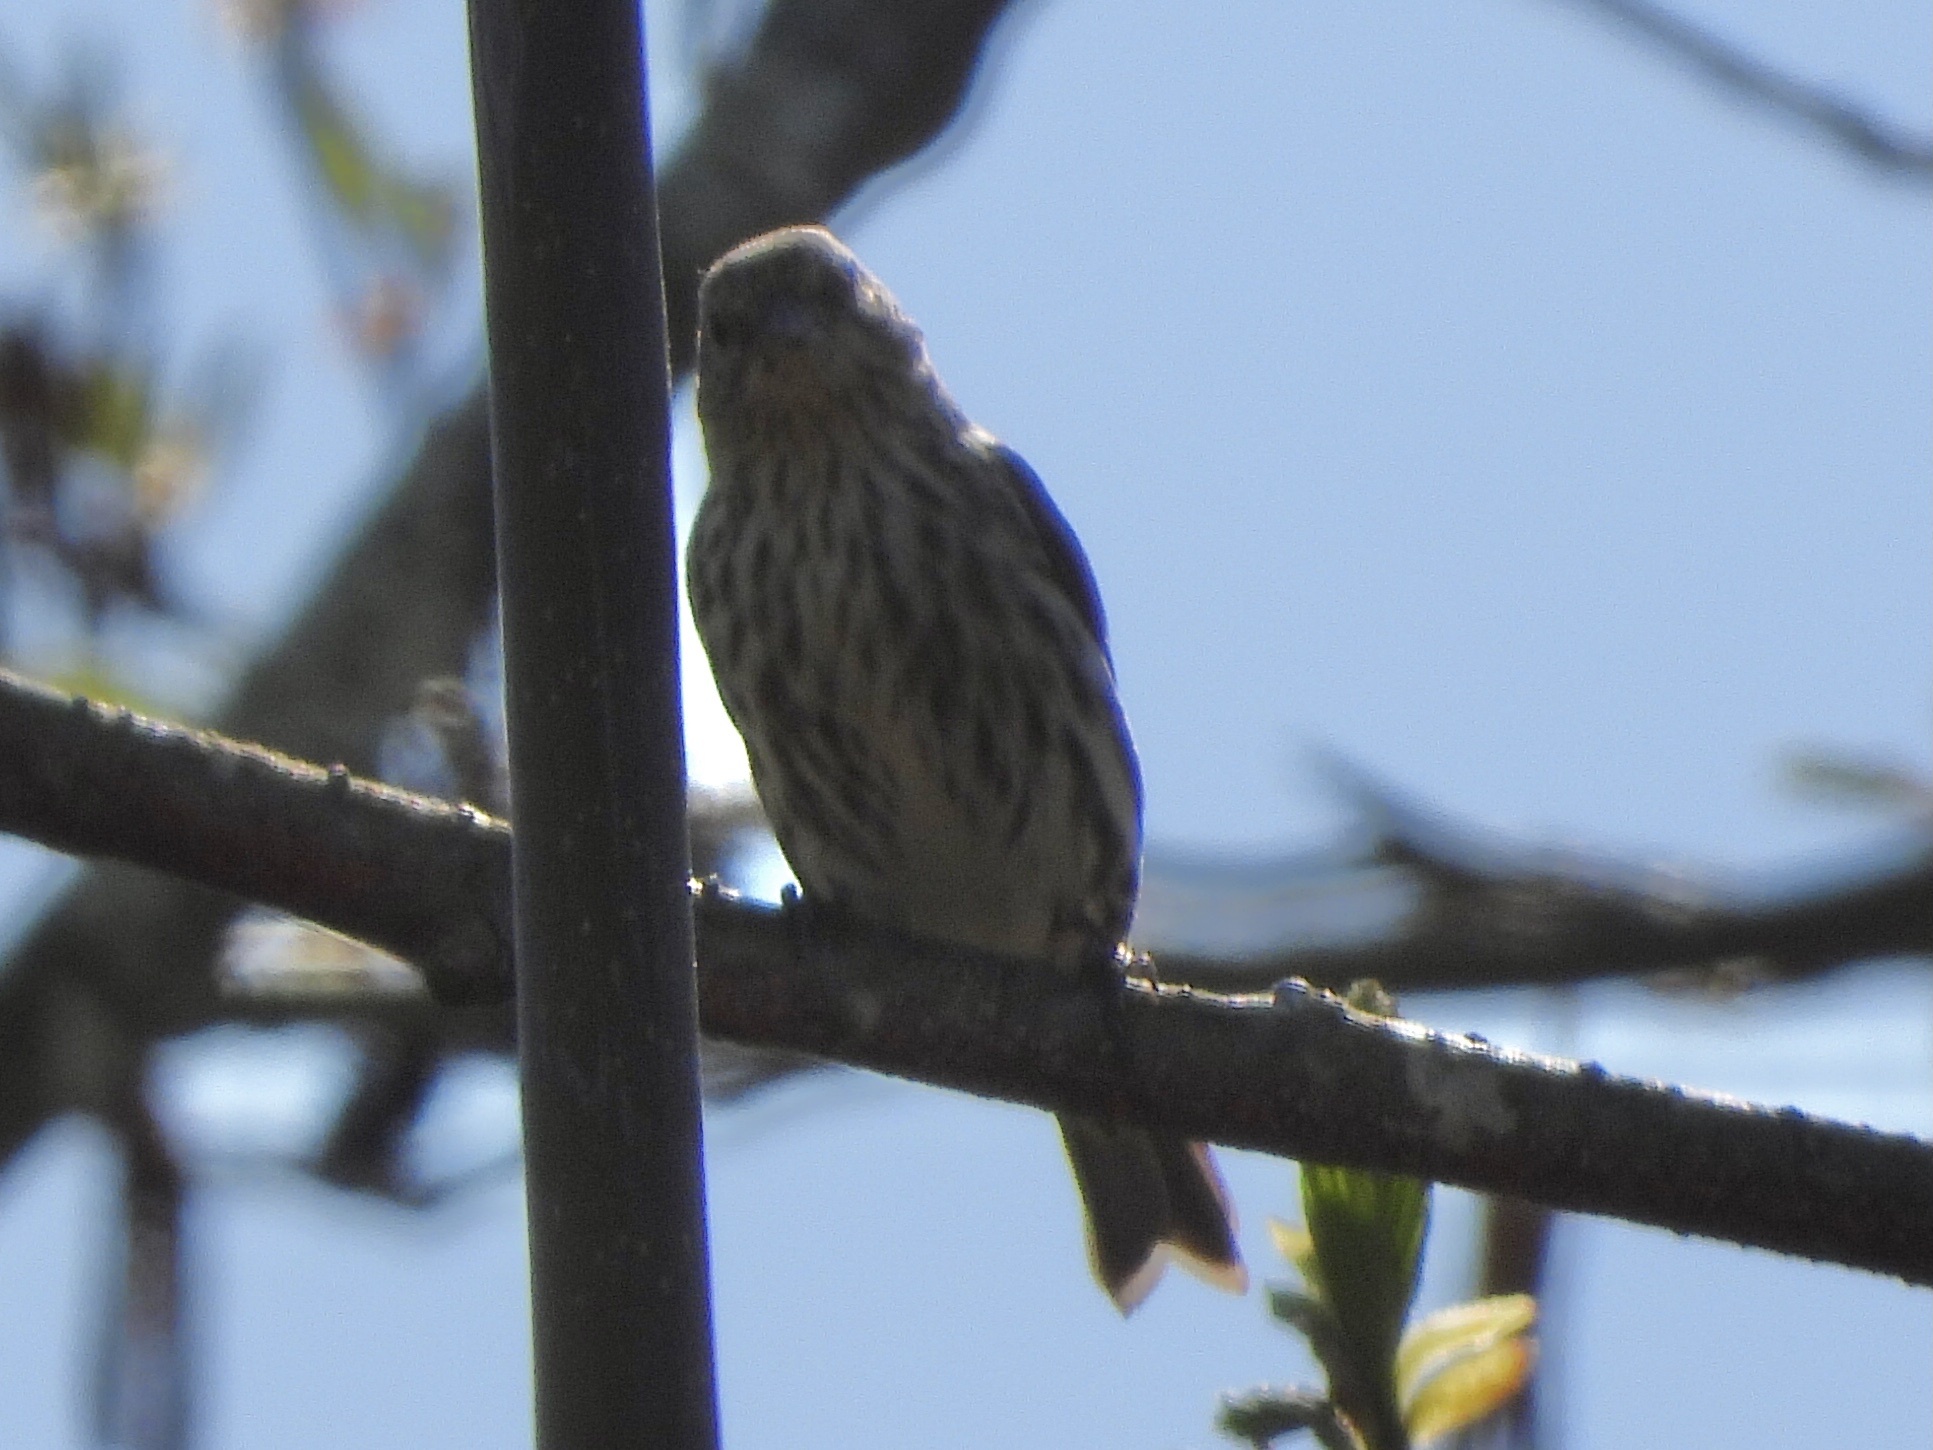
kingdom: Animalia
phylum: Chordata
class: Aves
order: Passeriformes
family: Fringillidae
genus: Spinus
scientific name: Spinus pinus
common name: Pine siskin
